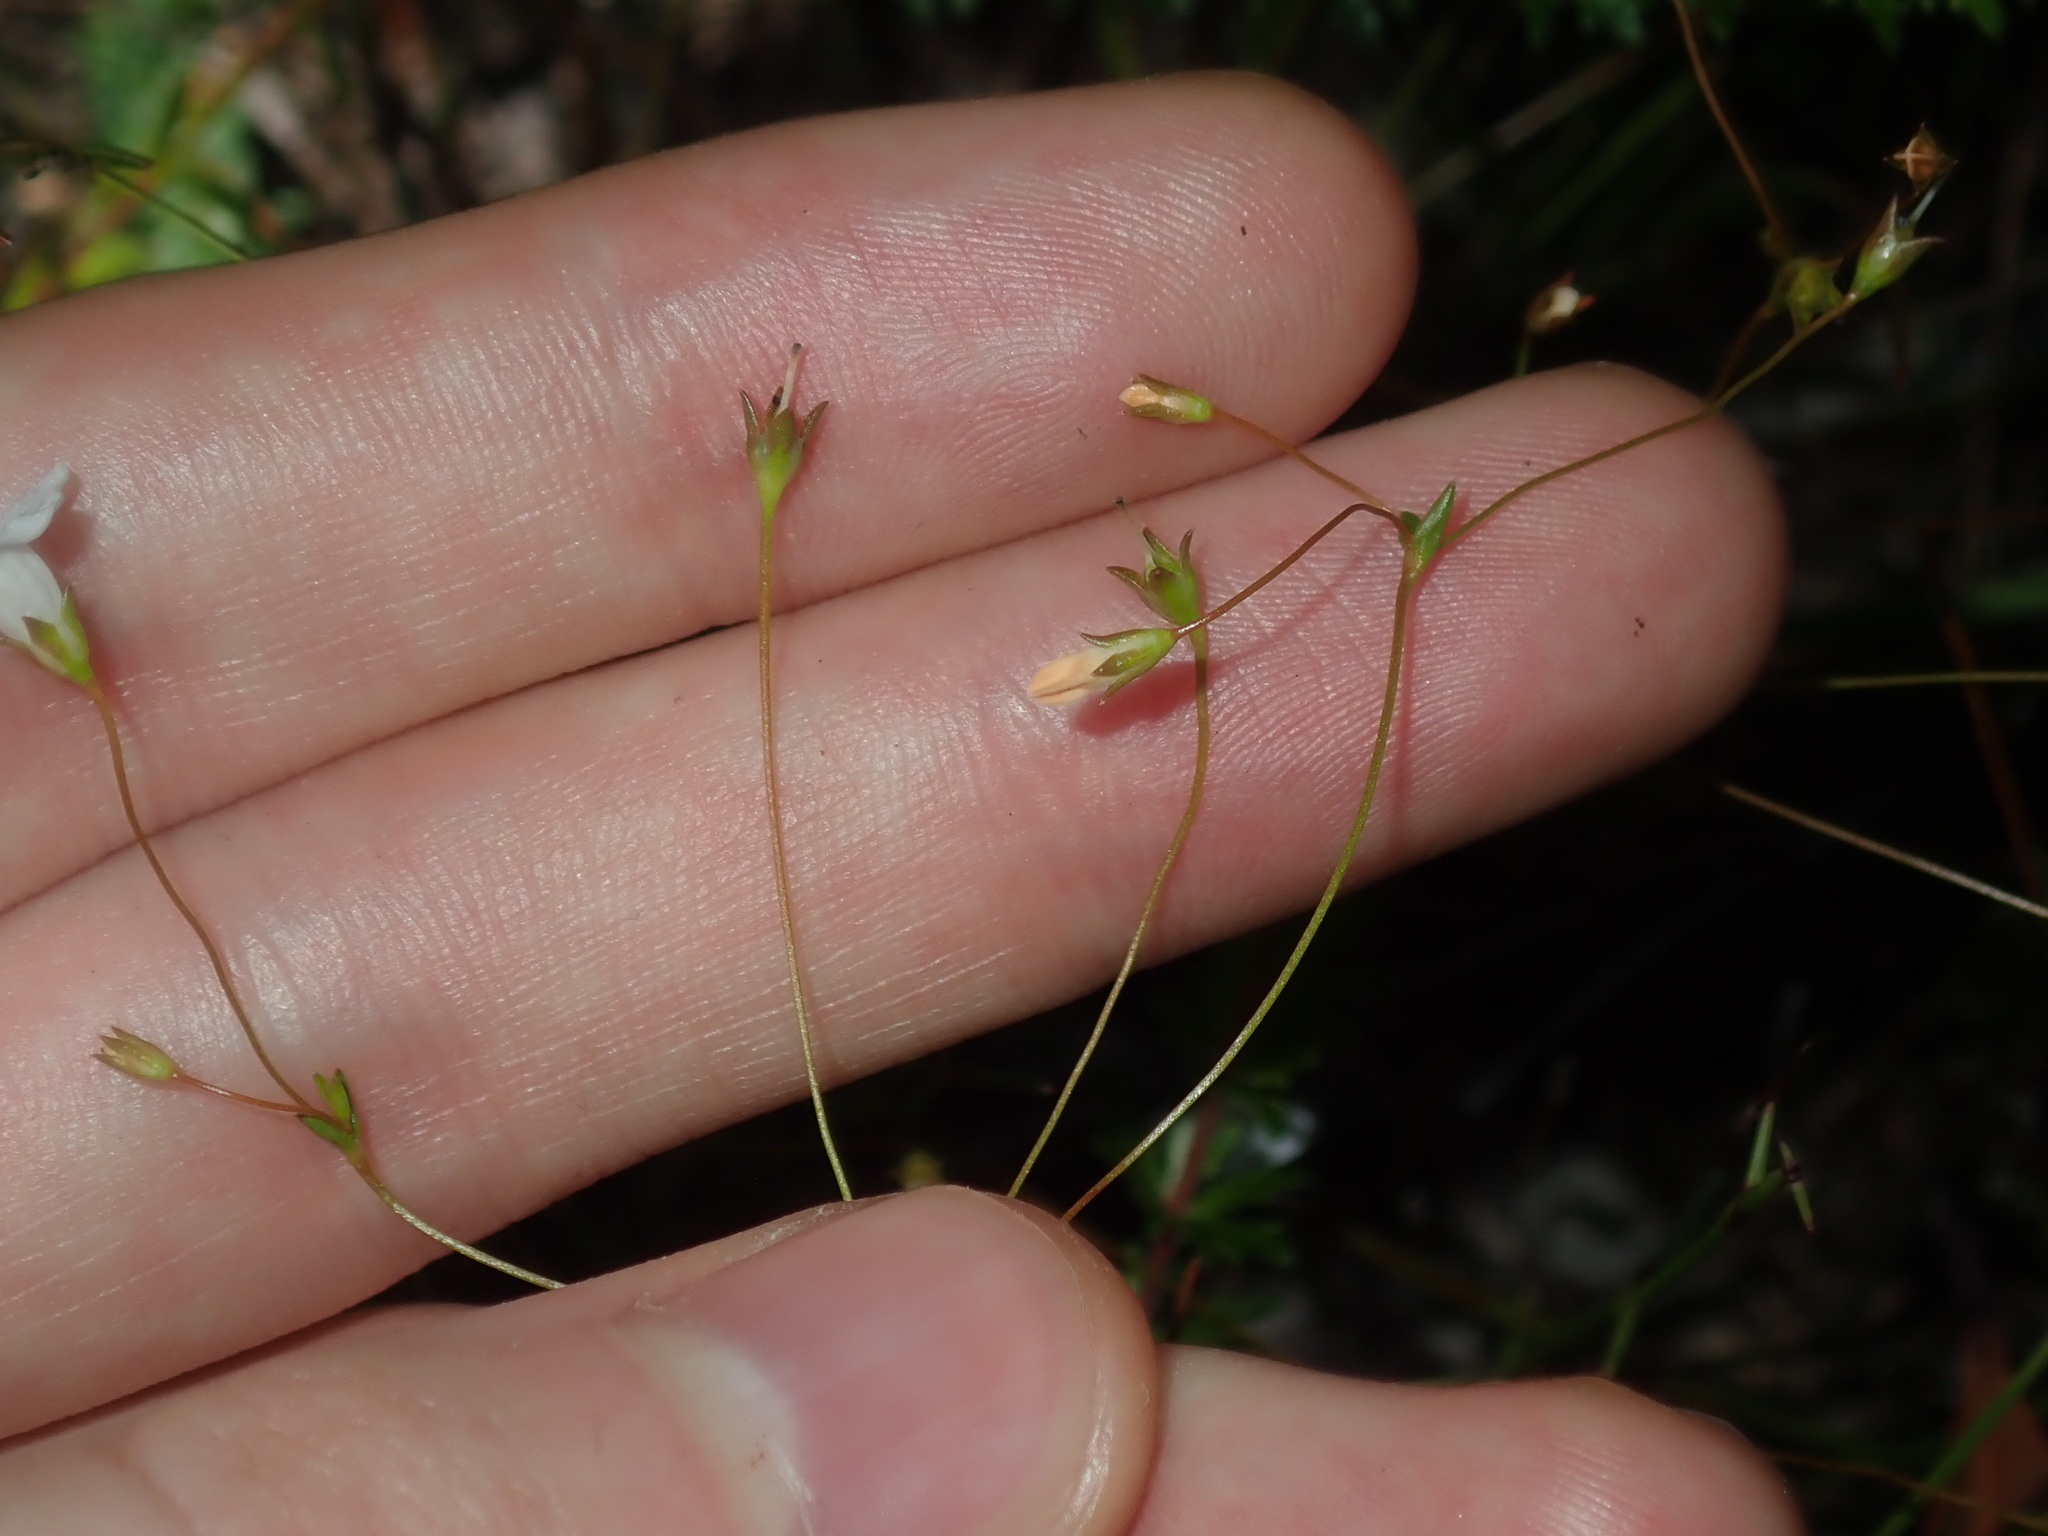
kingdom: Plantae
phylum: Tracheophyta
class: Magnoliopsida
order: Gentianales
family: Loganiaceae
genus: Mitrasacme
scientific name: Mitrasacme polymorpha
